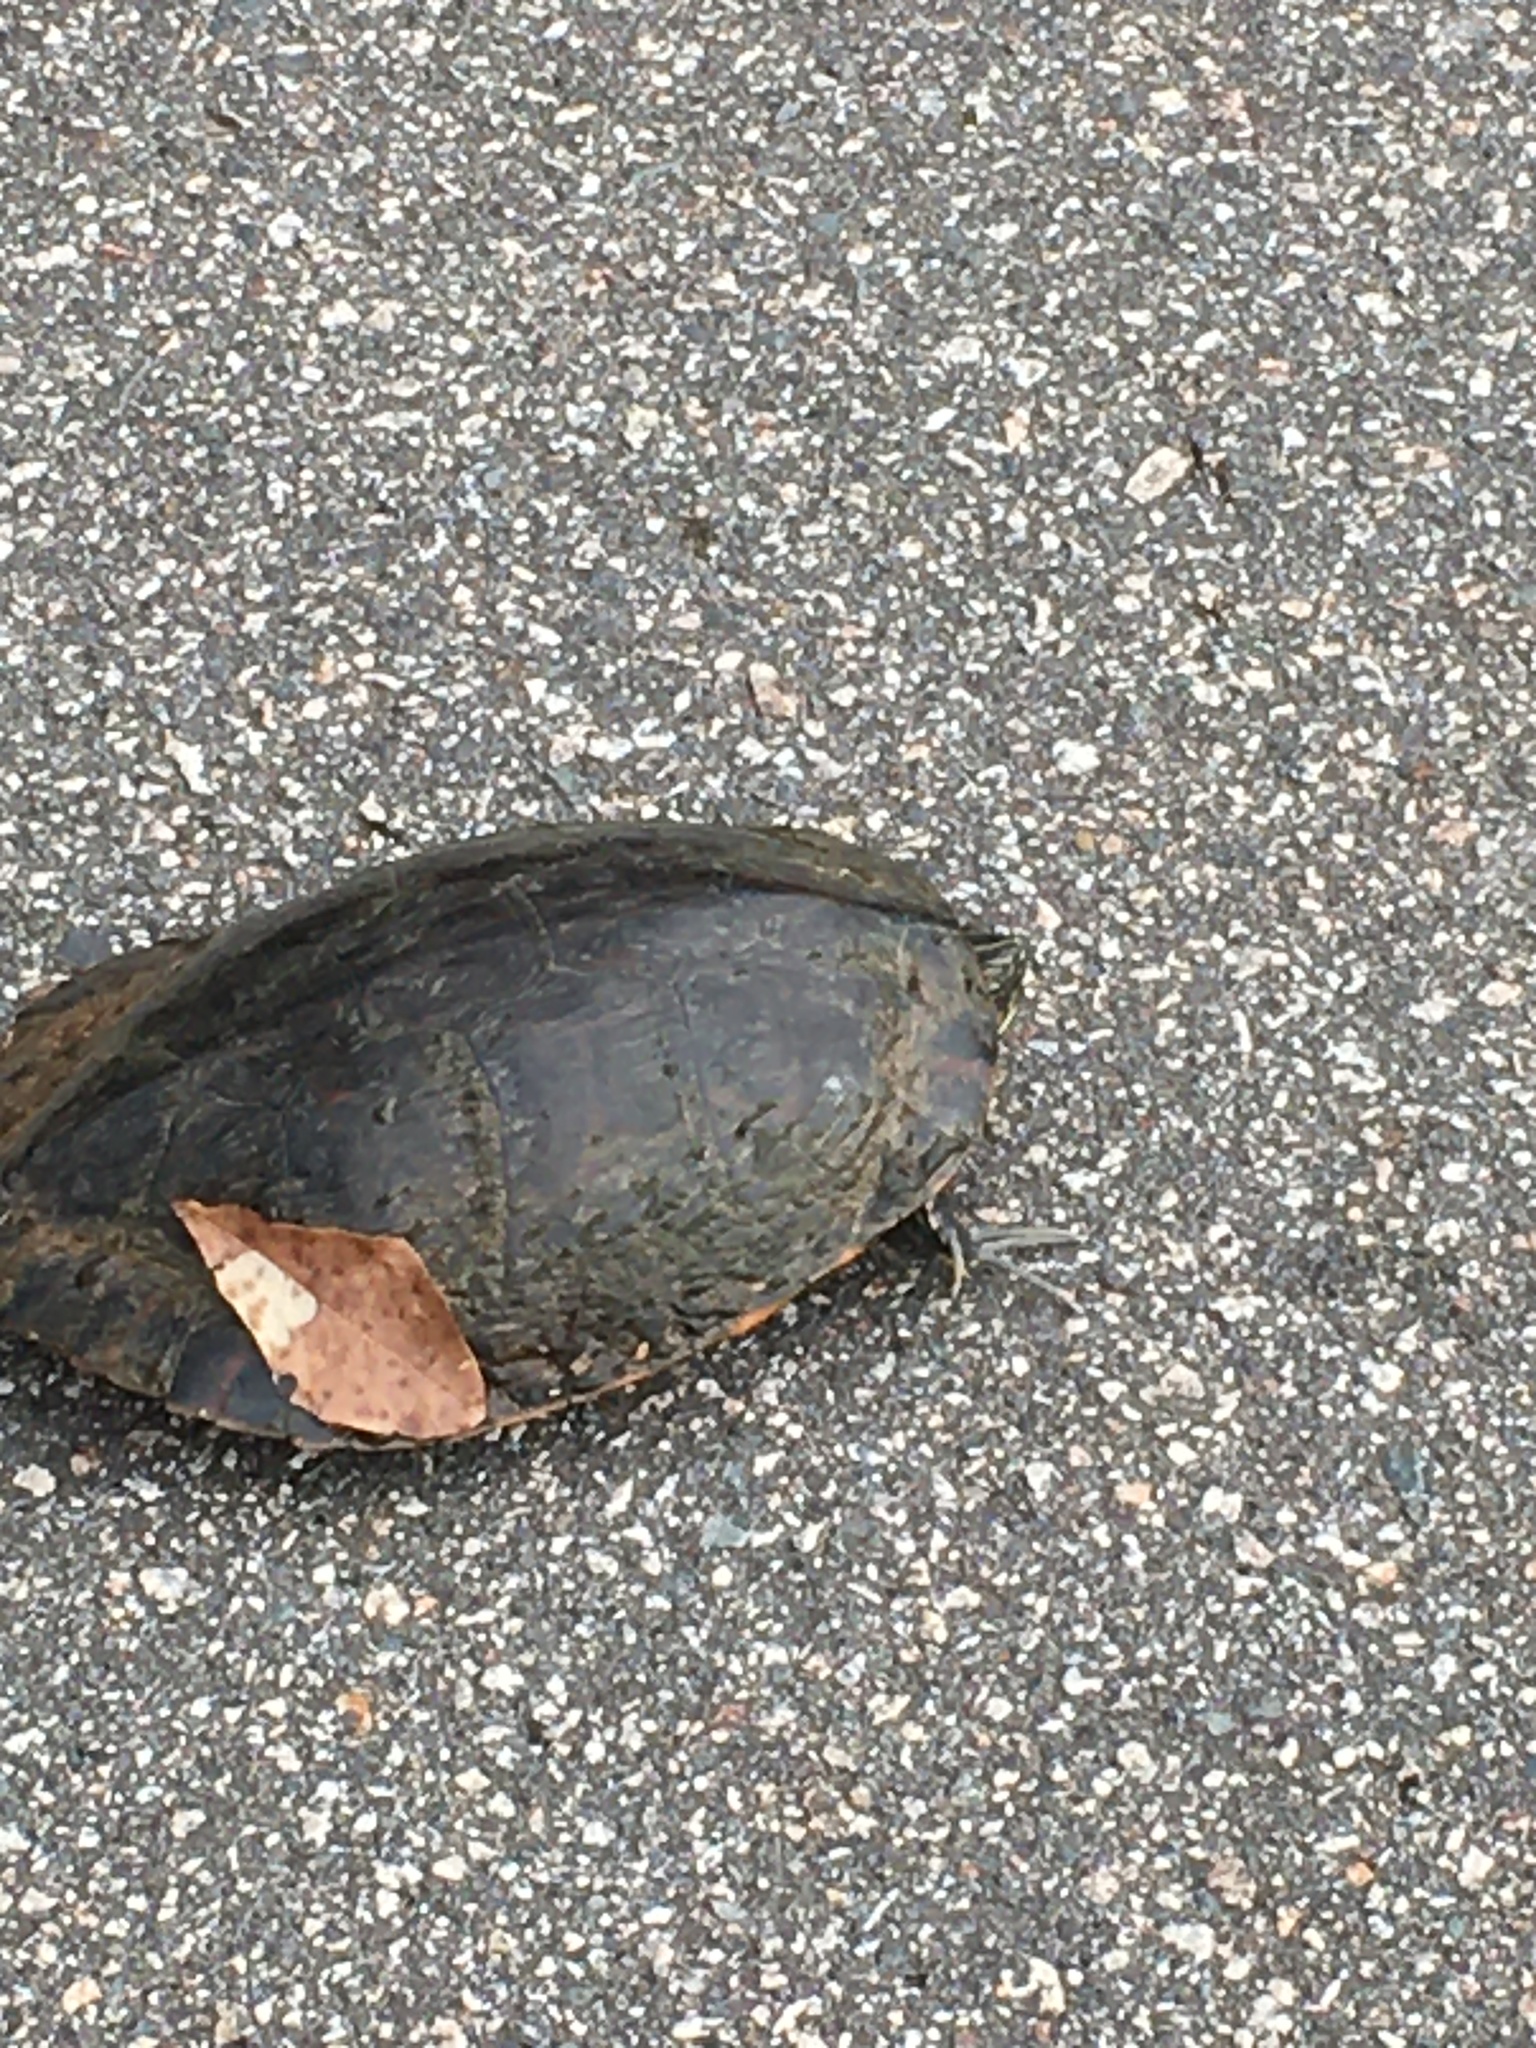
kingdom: Animalia
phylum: Chordata
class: Testudines
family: Emydidae
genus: Pseudemys
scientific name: Pseudemys concinna
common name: Eastern river cooter
